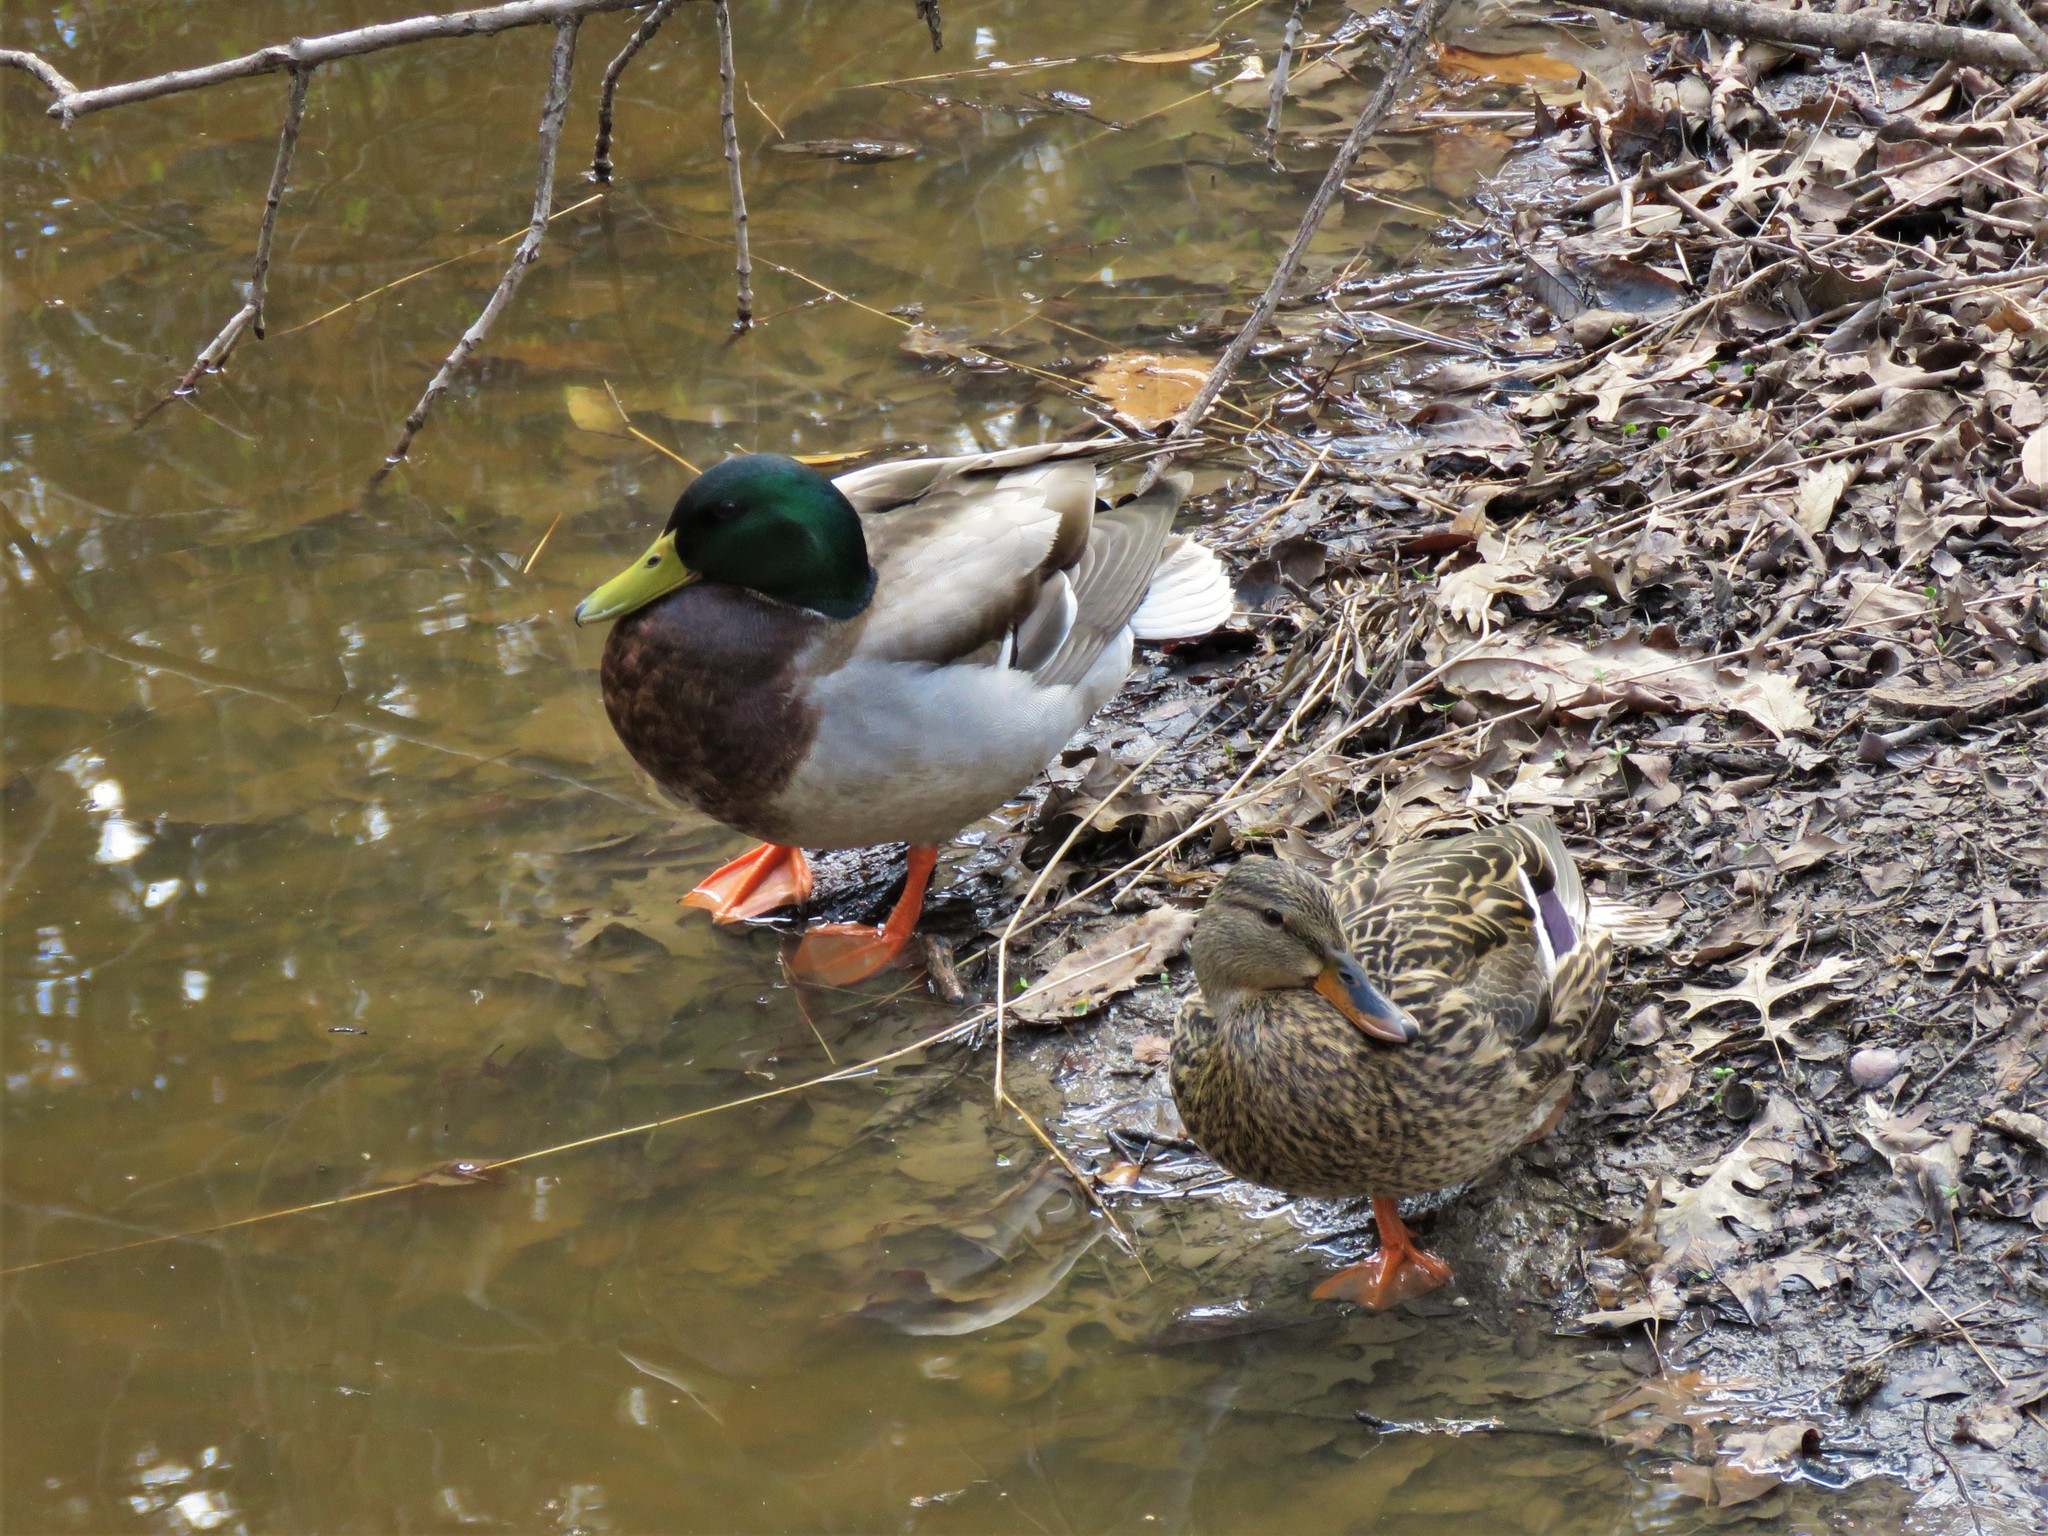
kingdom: Animalia
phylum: Chordata
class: Aves
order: Anseriformes
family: Anatidae
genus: Anas
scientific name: Anas platyrhynchos
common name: Mallard
